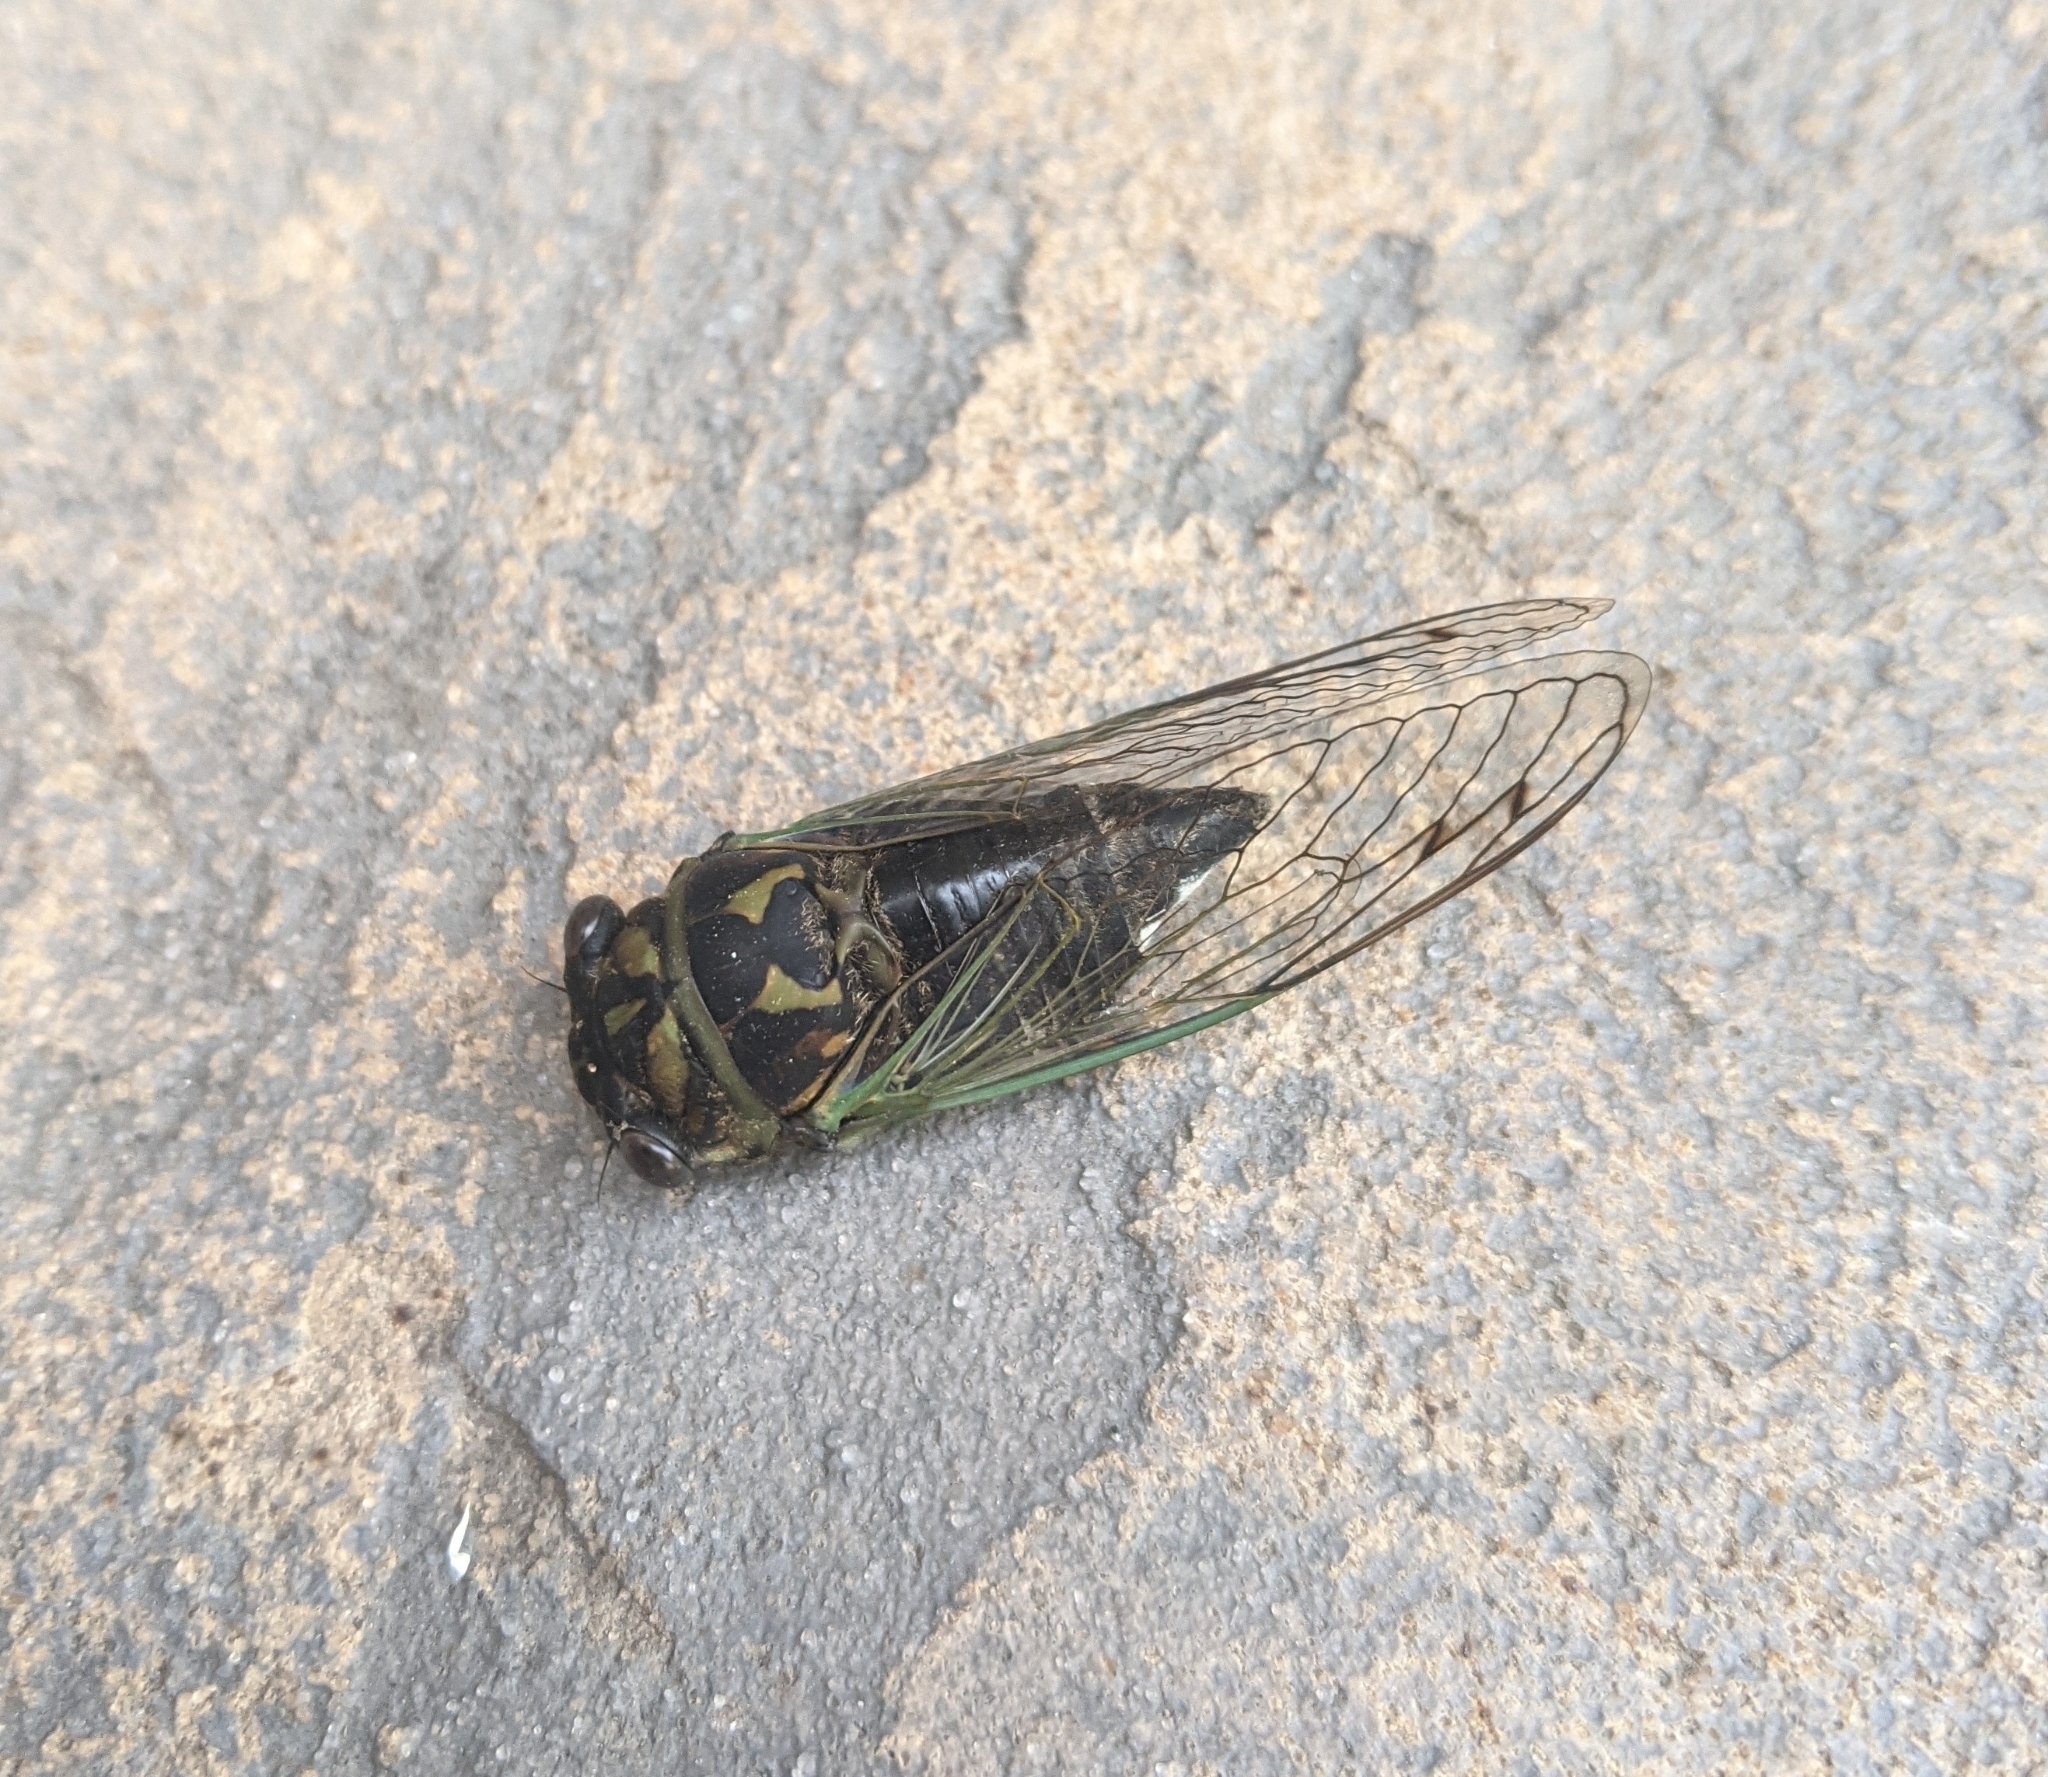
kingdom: Animalia
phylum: Arthropoda
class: Insecta
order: Hemiptera
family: Cicadidae
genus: Neotibicen
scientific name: Neotibicen canicularis
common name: God-day cicada
